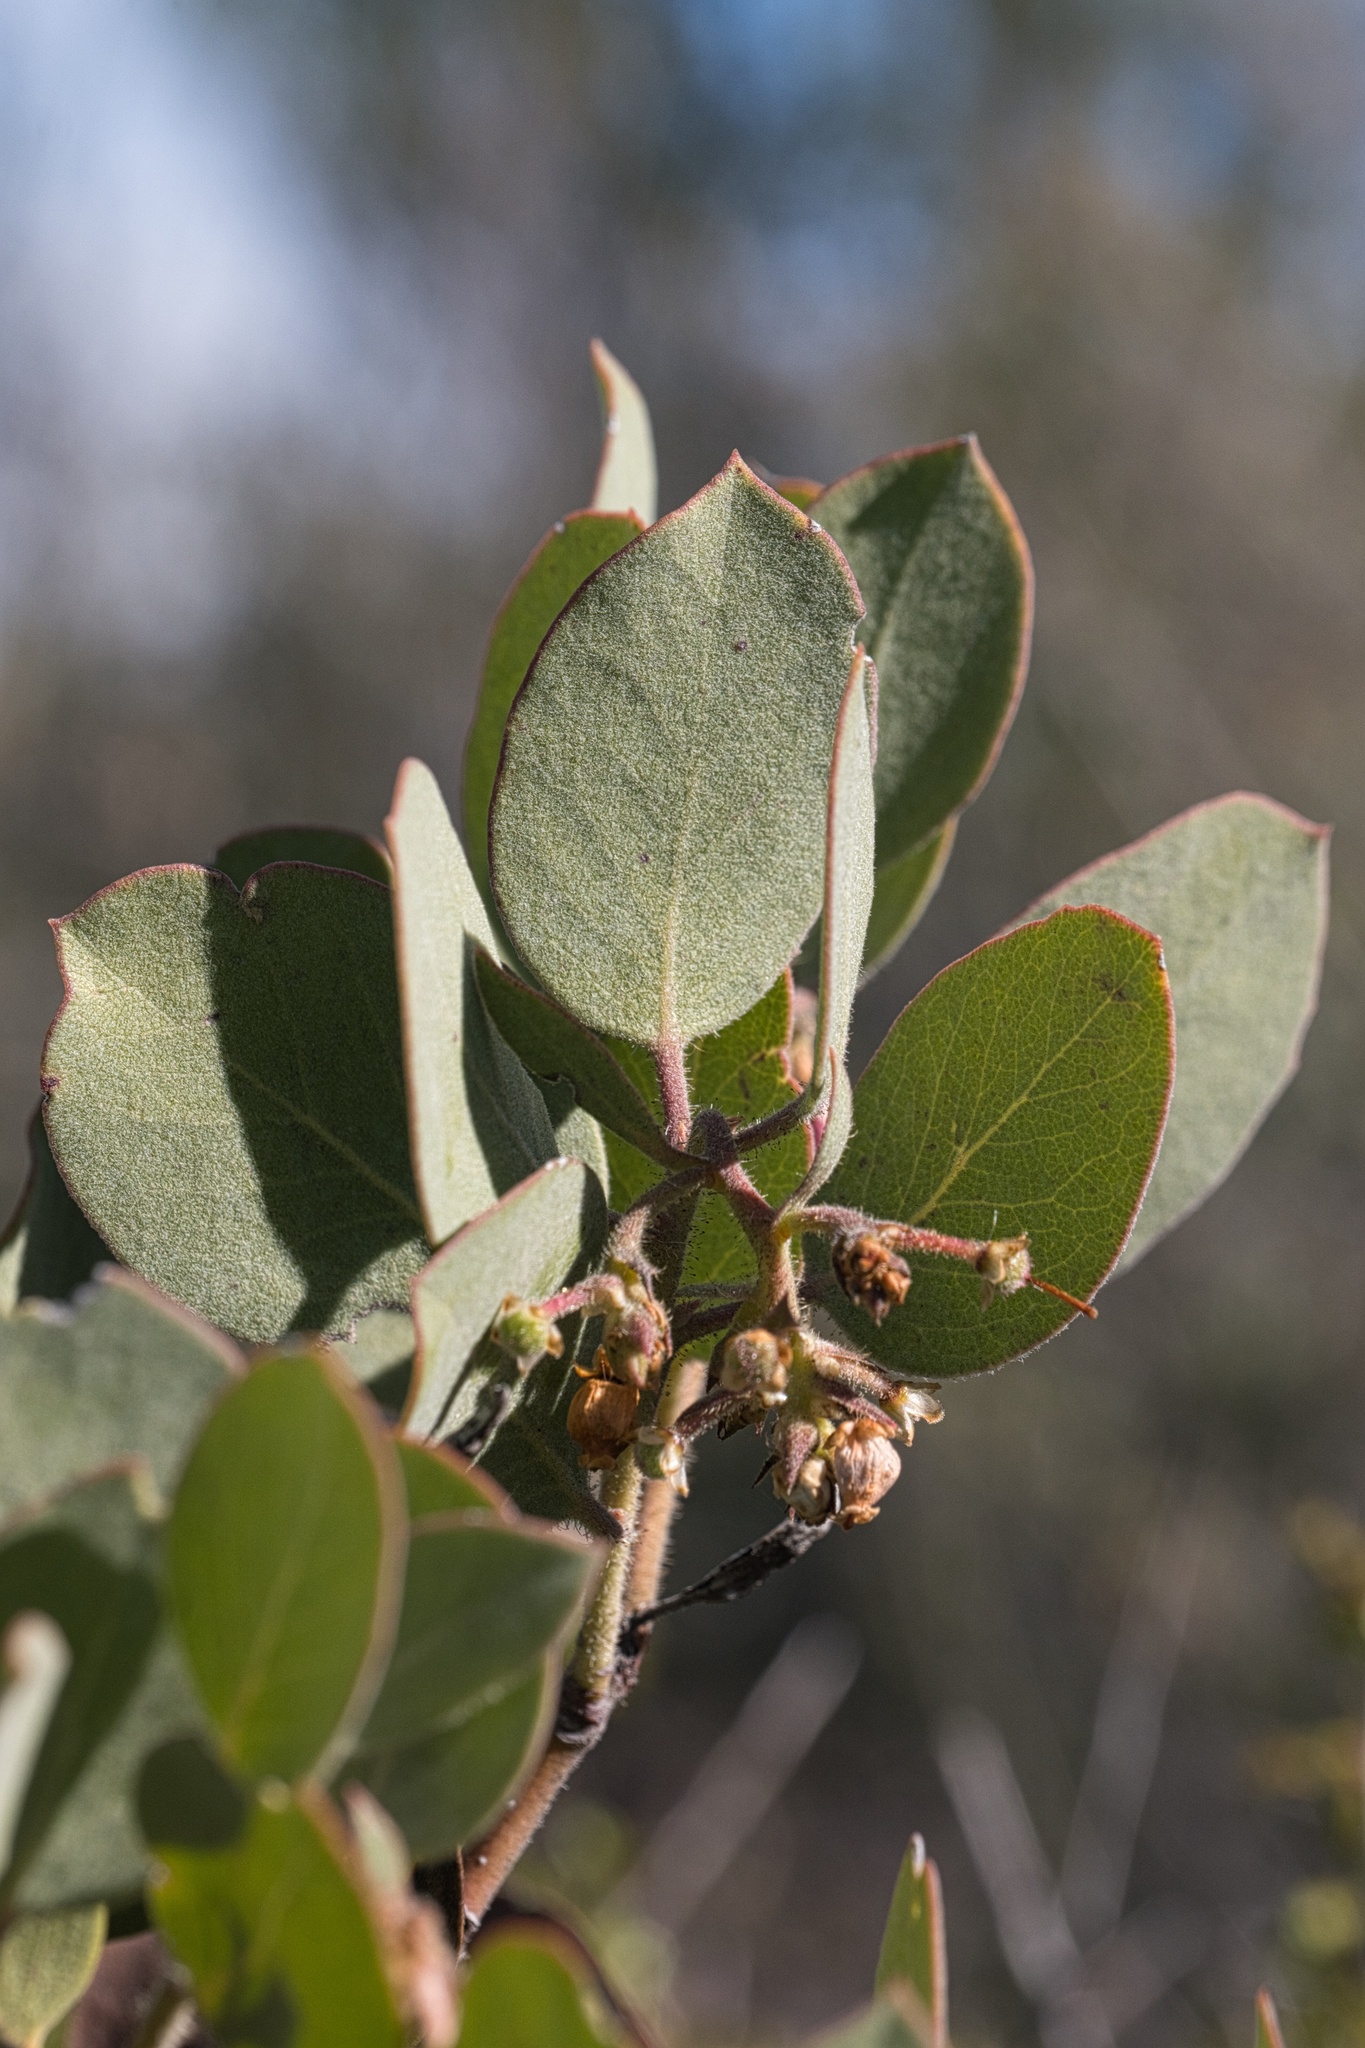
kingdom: Plantae
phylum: Tracheophyta
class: Magnoliopsida
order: Ericales
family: Ericaceae
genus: Arctostaphylos
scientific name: Arctostaphylos glandulosa
